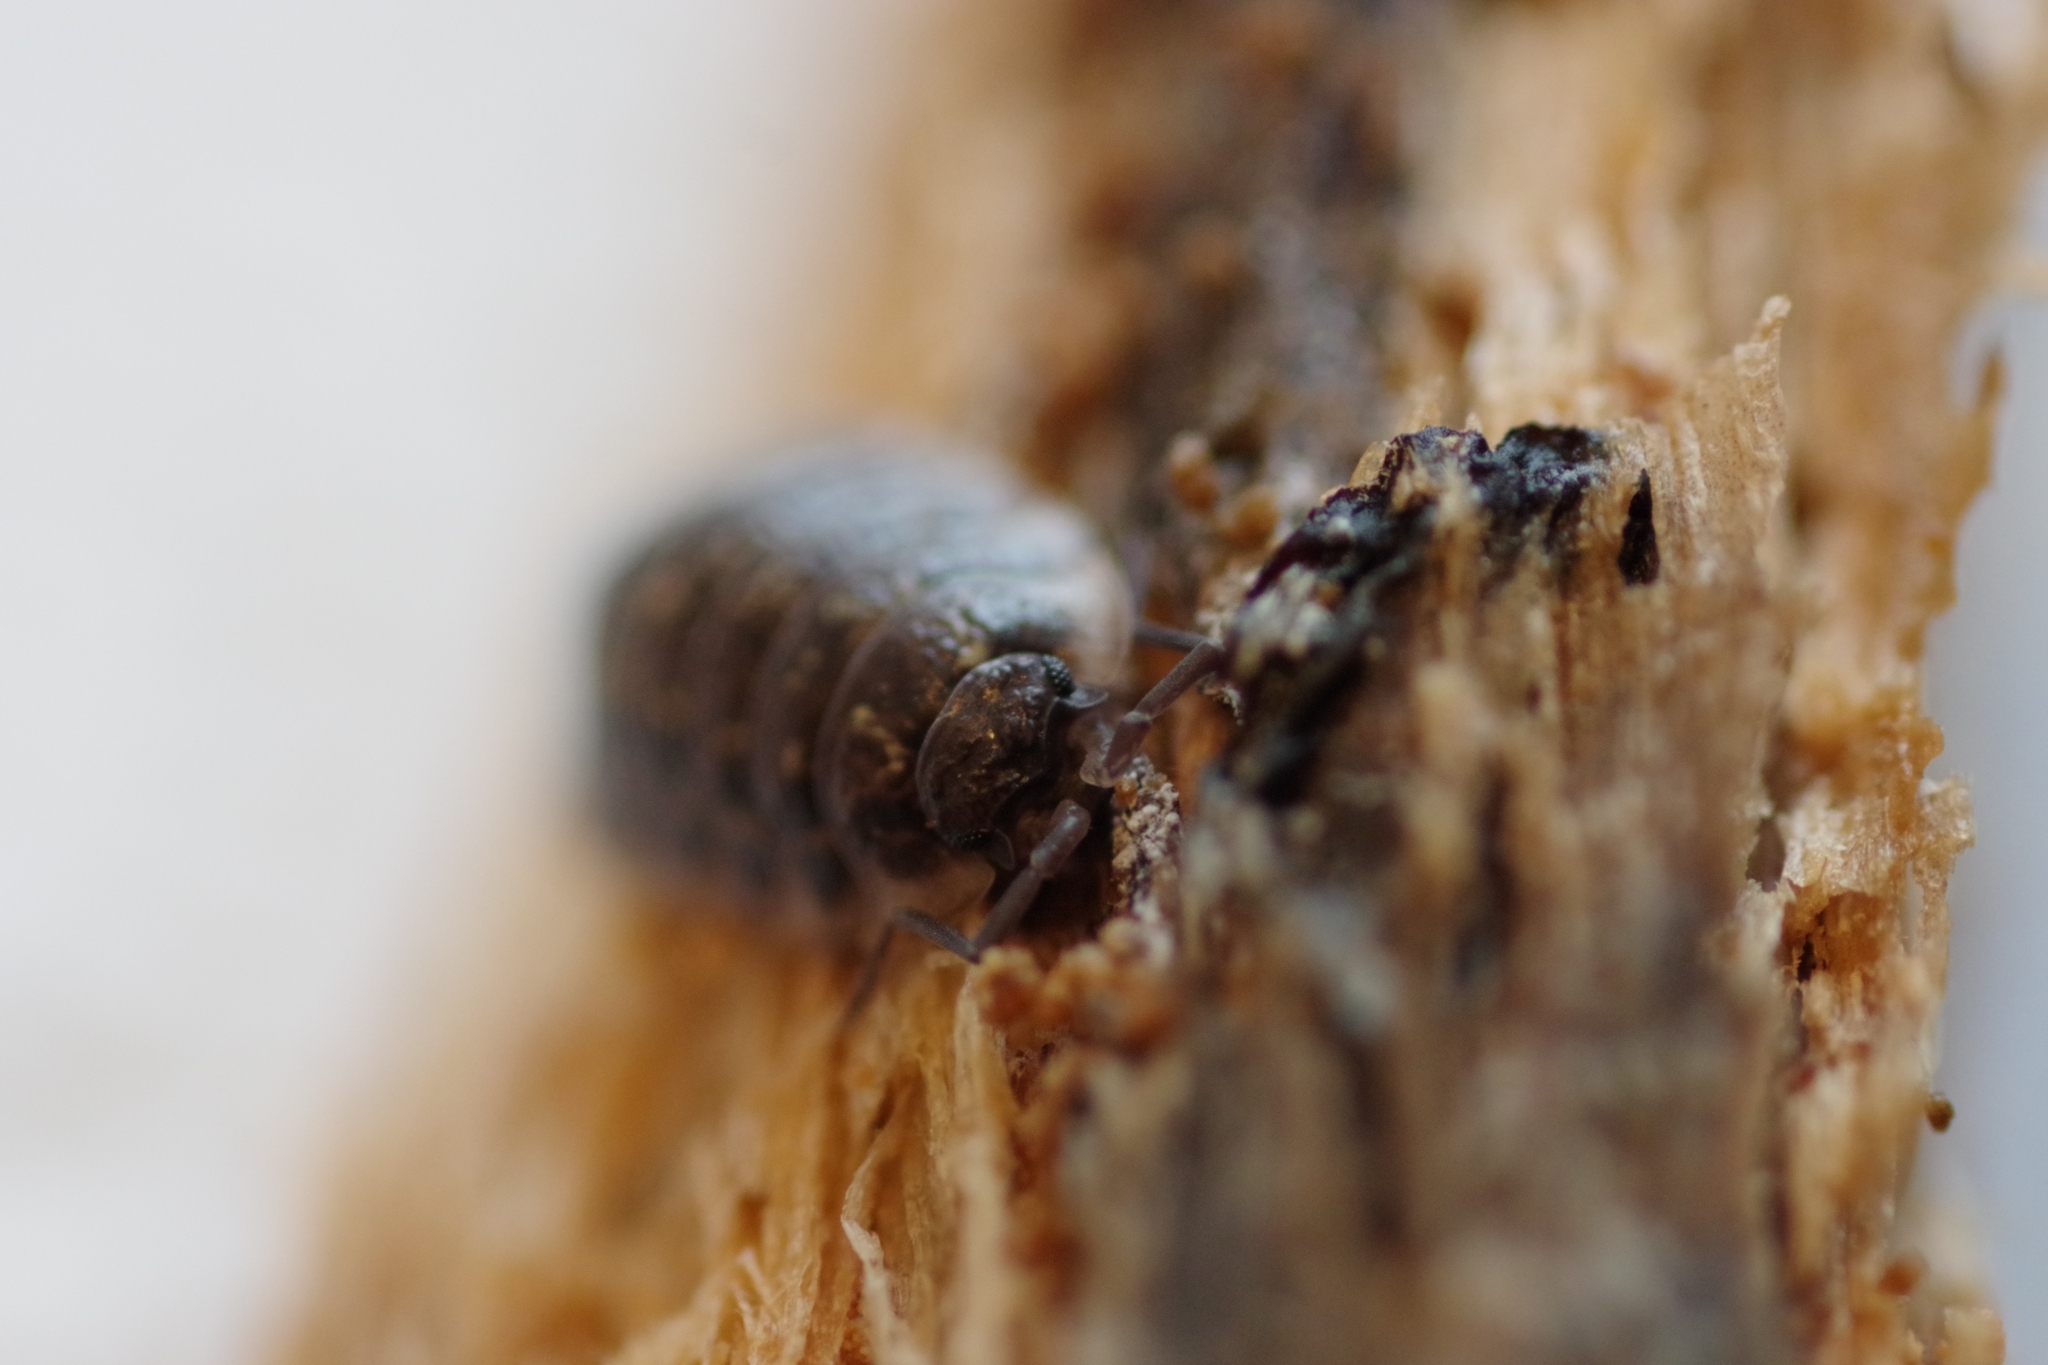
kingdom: Animalia
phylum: Arthropoda
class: Malacostraca
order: Isopoda
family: Oniscidae
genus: Oniscus
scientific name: Oniscus asellus
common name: Common shiny woodlouse
